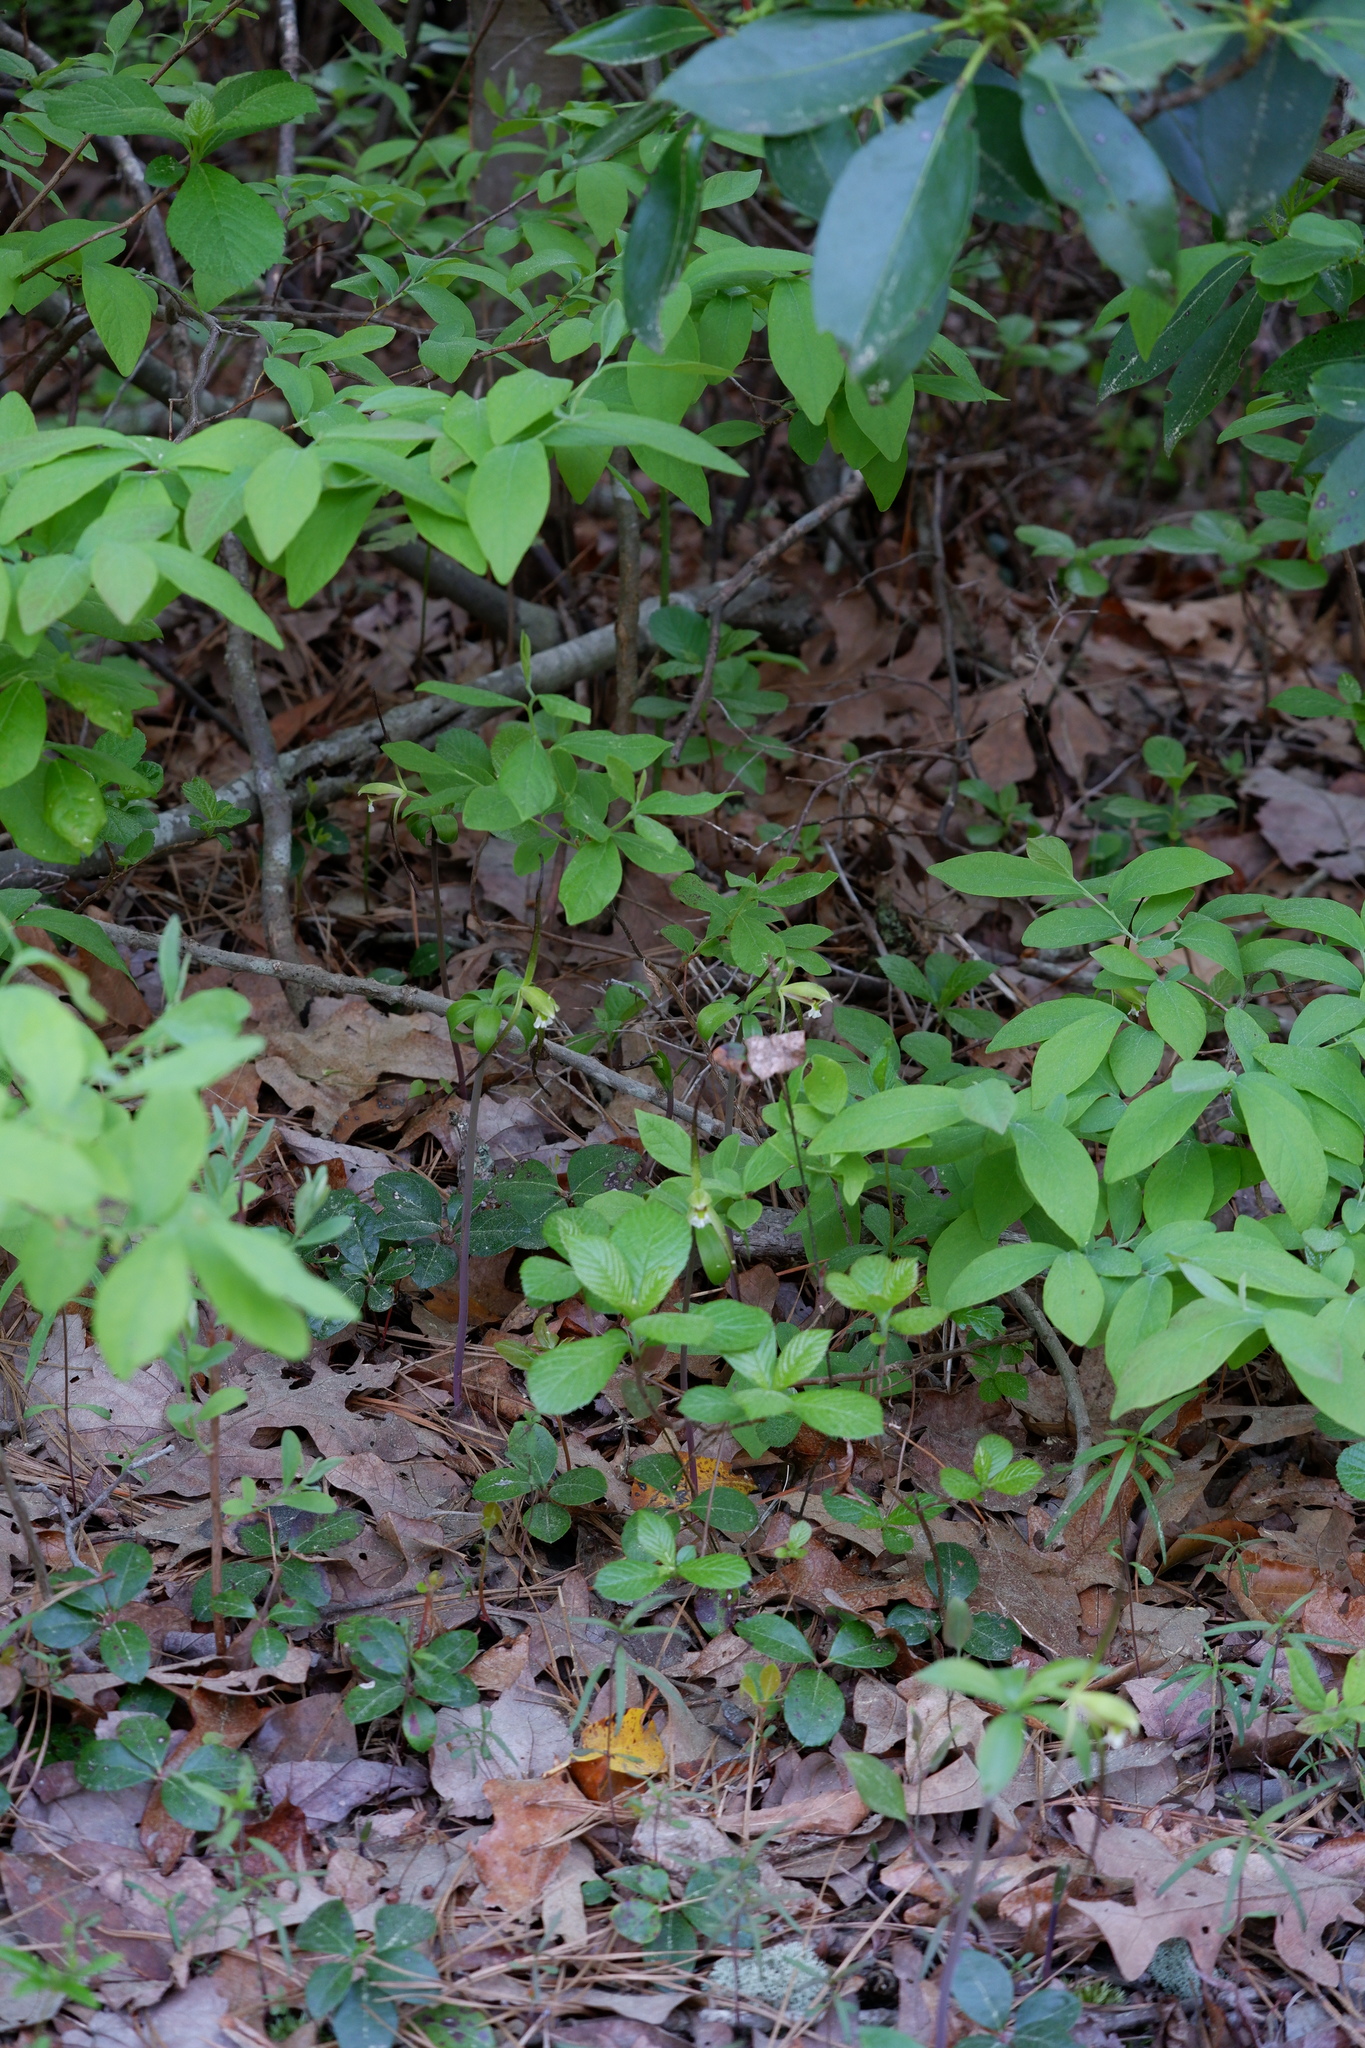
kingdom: Plantae
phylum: Tracheophyta
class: Liliopsida
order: Asparagales
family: Orchidaceae
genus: Isotria
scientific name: Isotria verticillata
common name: Large whorled pogonia
